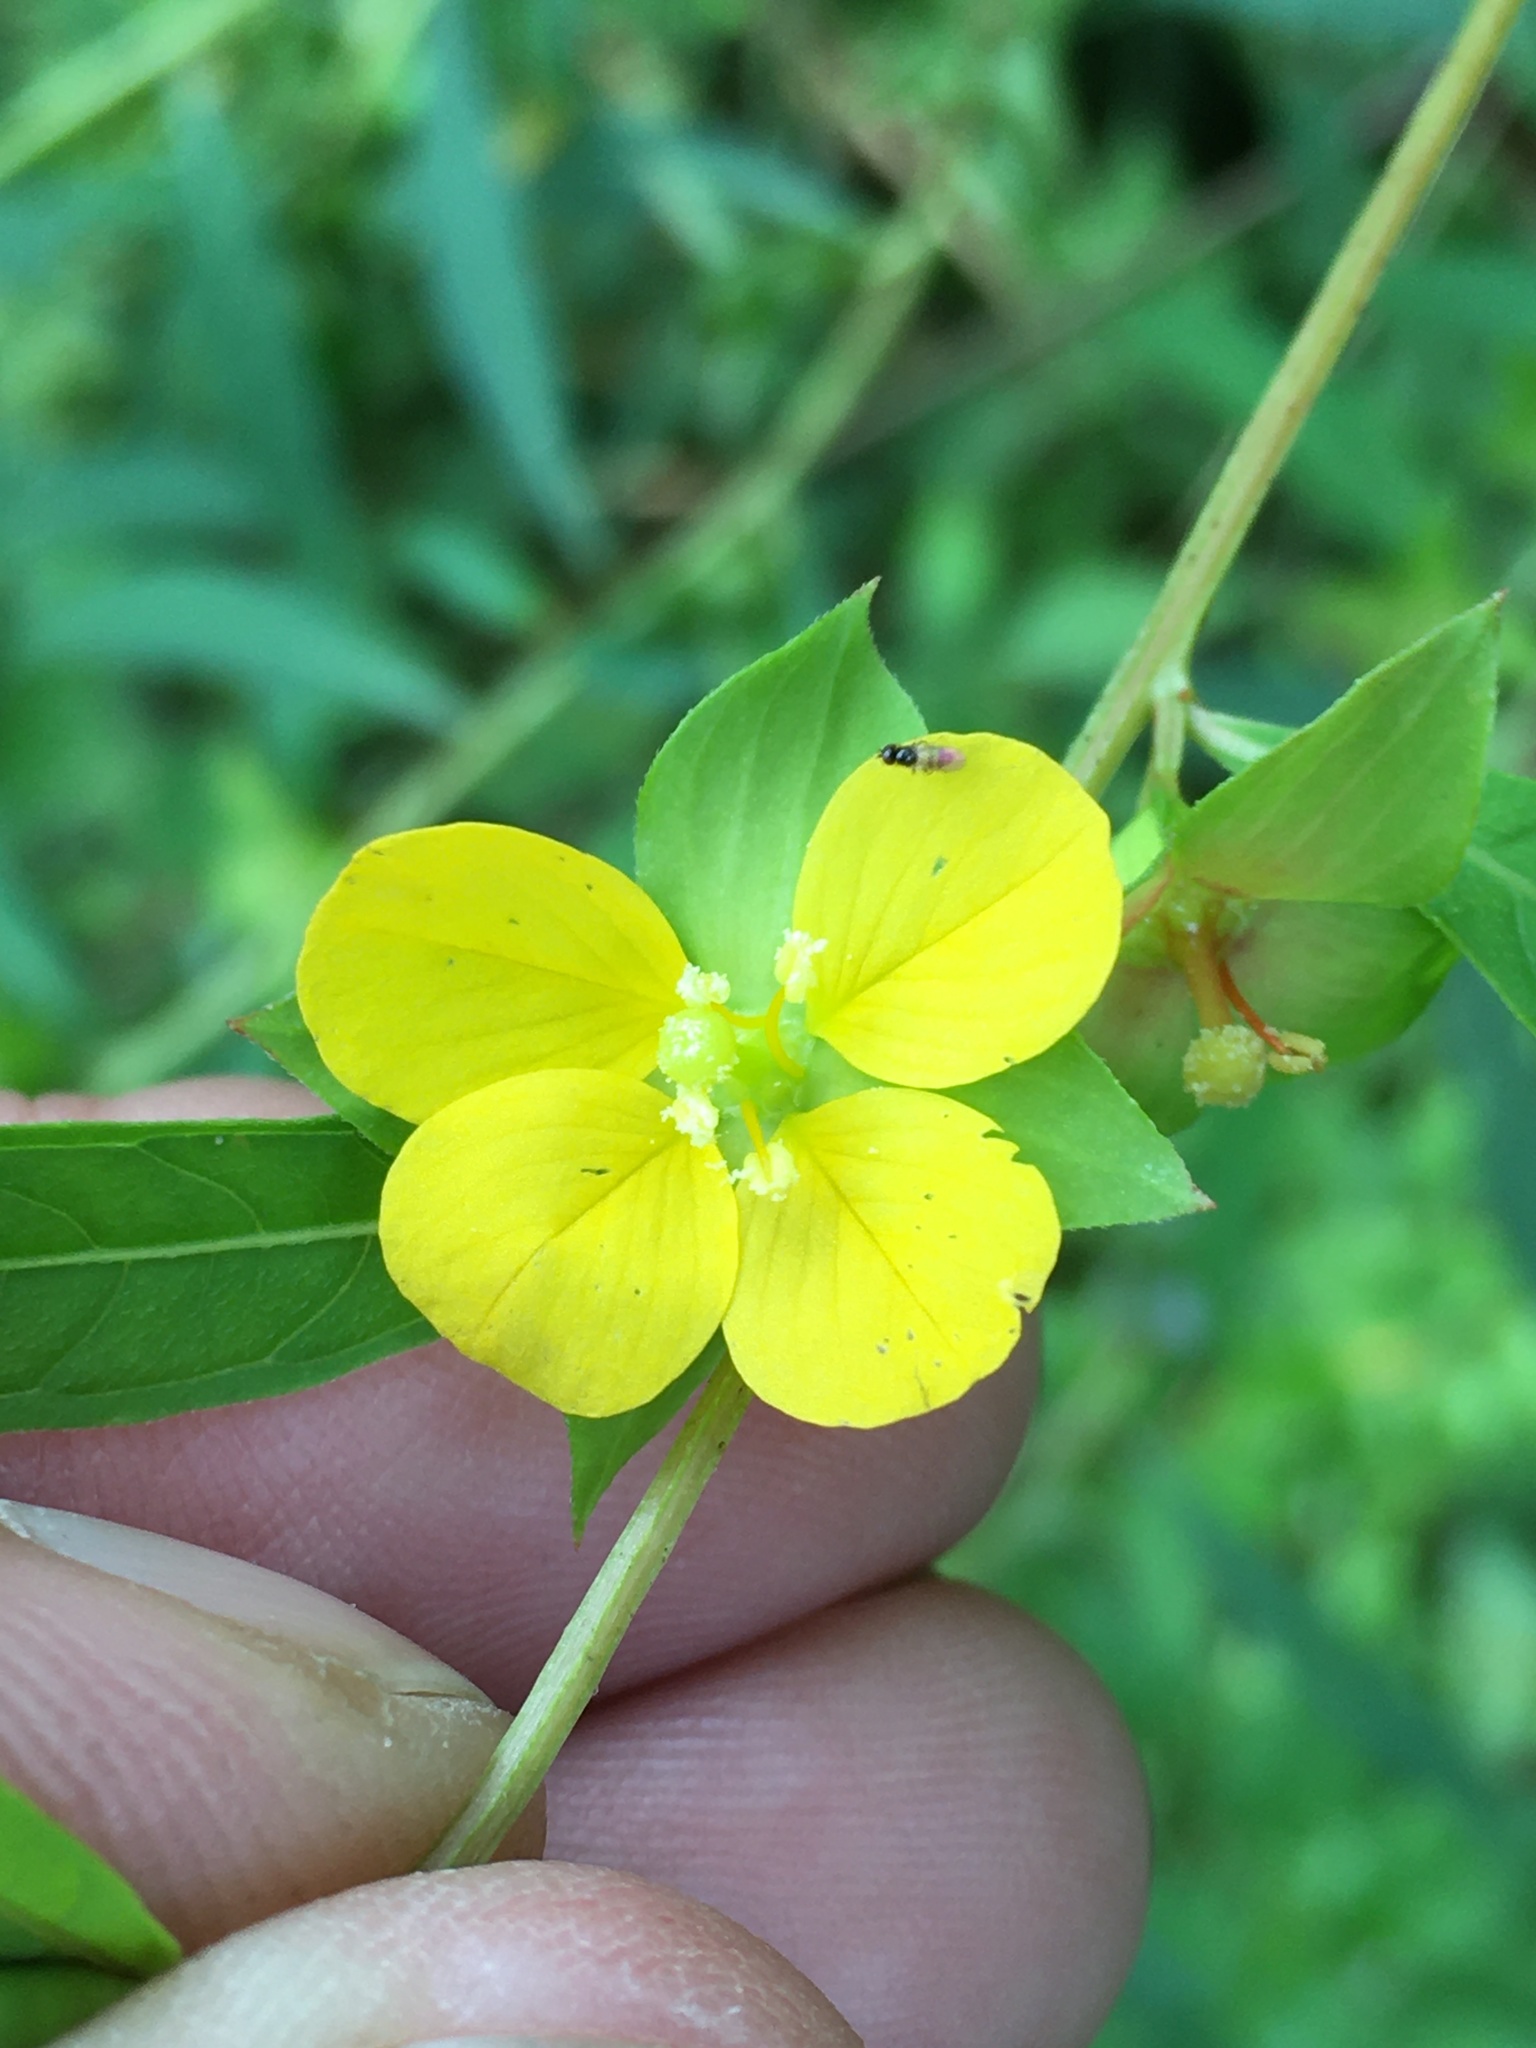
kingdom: Plantae
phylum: Tracheophyta
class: Magnoliopsida
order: Myrtales
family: Onagraceae
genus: Ludwigia
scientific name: Ludwigia alternifolia
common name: Rattlebox
